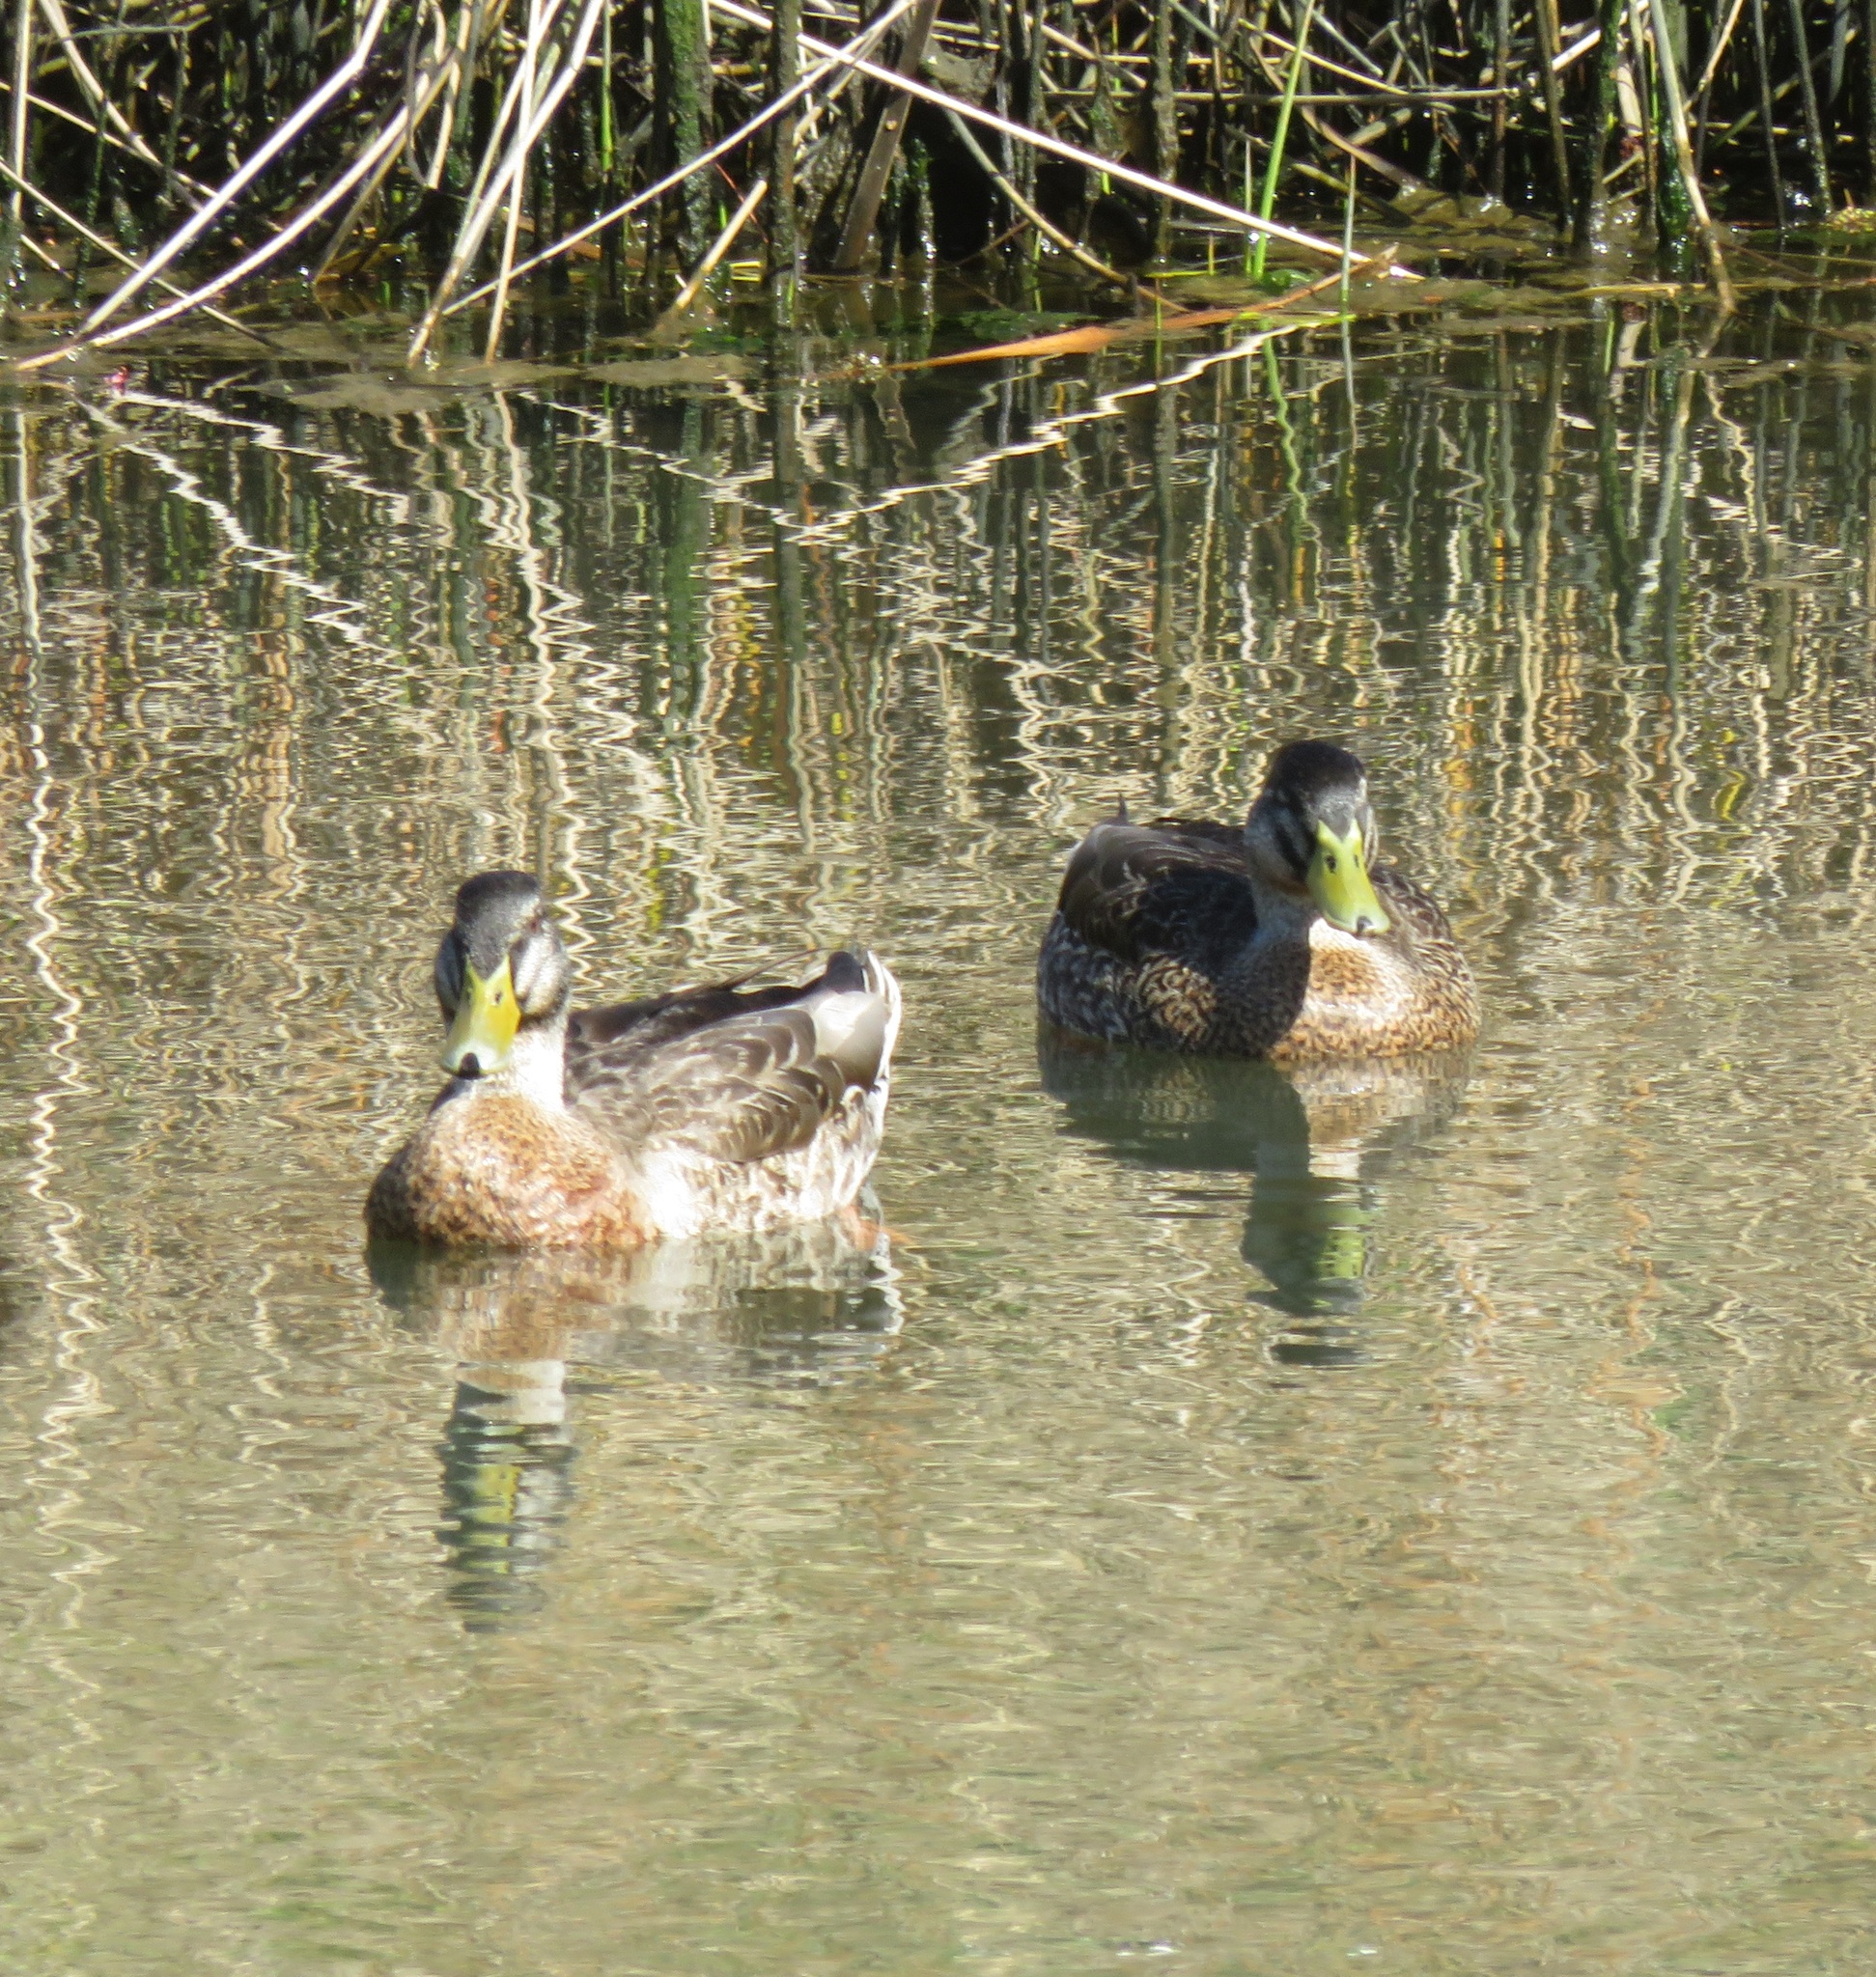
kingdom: Animalia
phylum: Chordata
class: Aves
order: Anseriformes
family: Anatidae
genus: Anas
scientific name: Anas platyrhynchos
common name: Mallard
